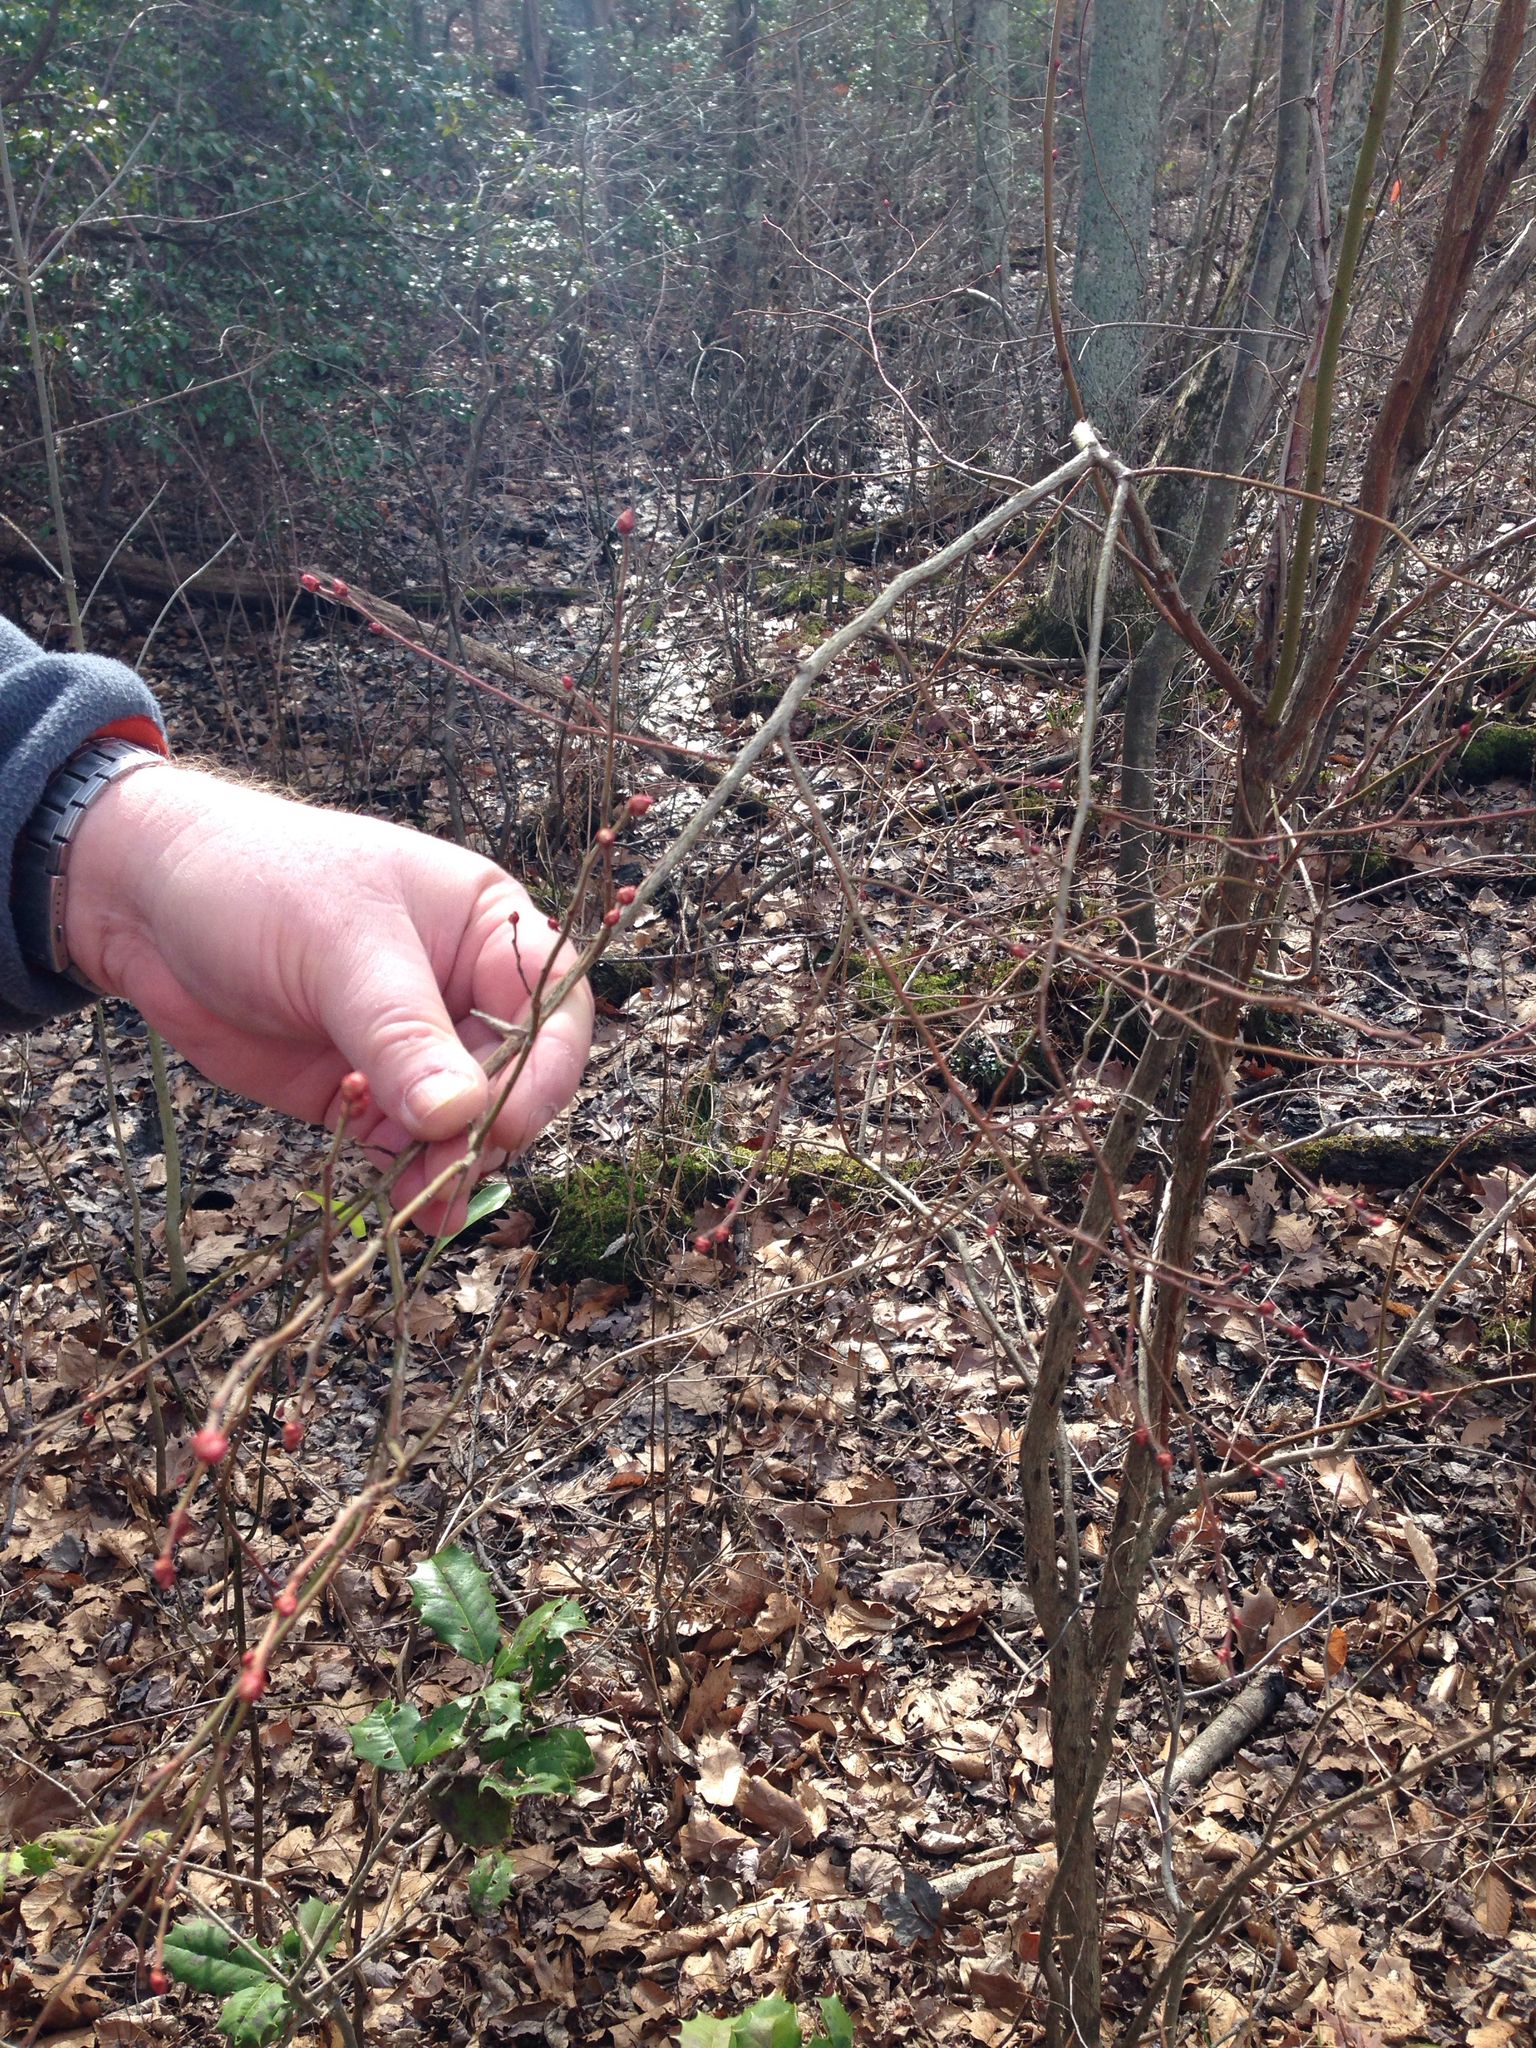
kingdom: Plantae
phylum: Tracheophyta
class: Magnoliopsida
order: Ericales
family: Ericaceae
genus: Vaccinium
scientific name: Vaccinium corymbosum
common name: Blueberry
